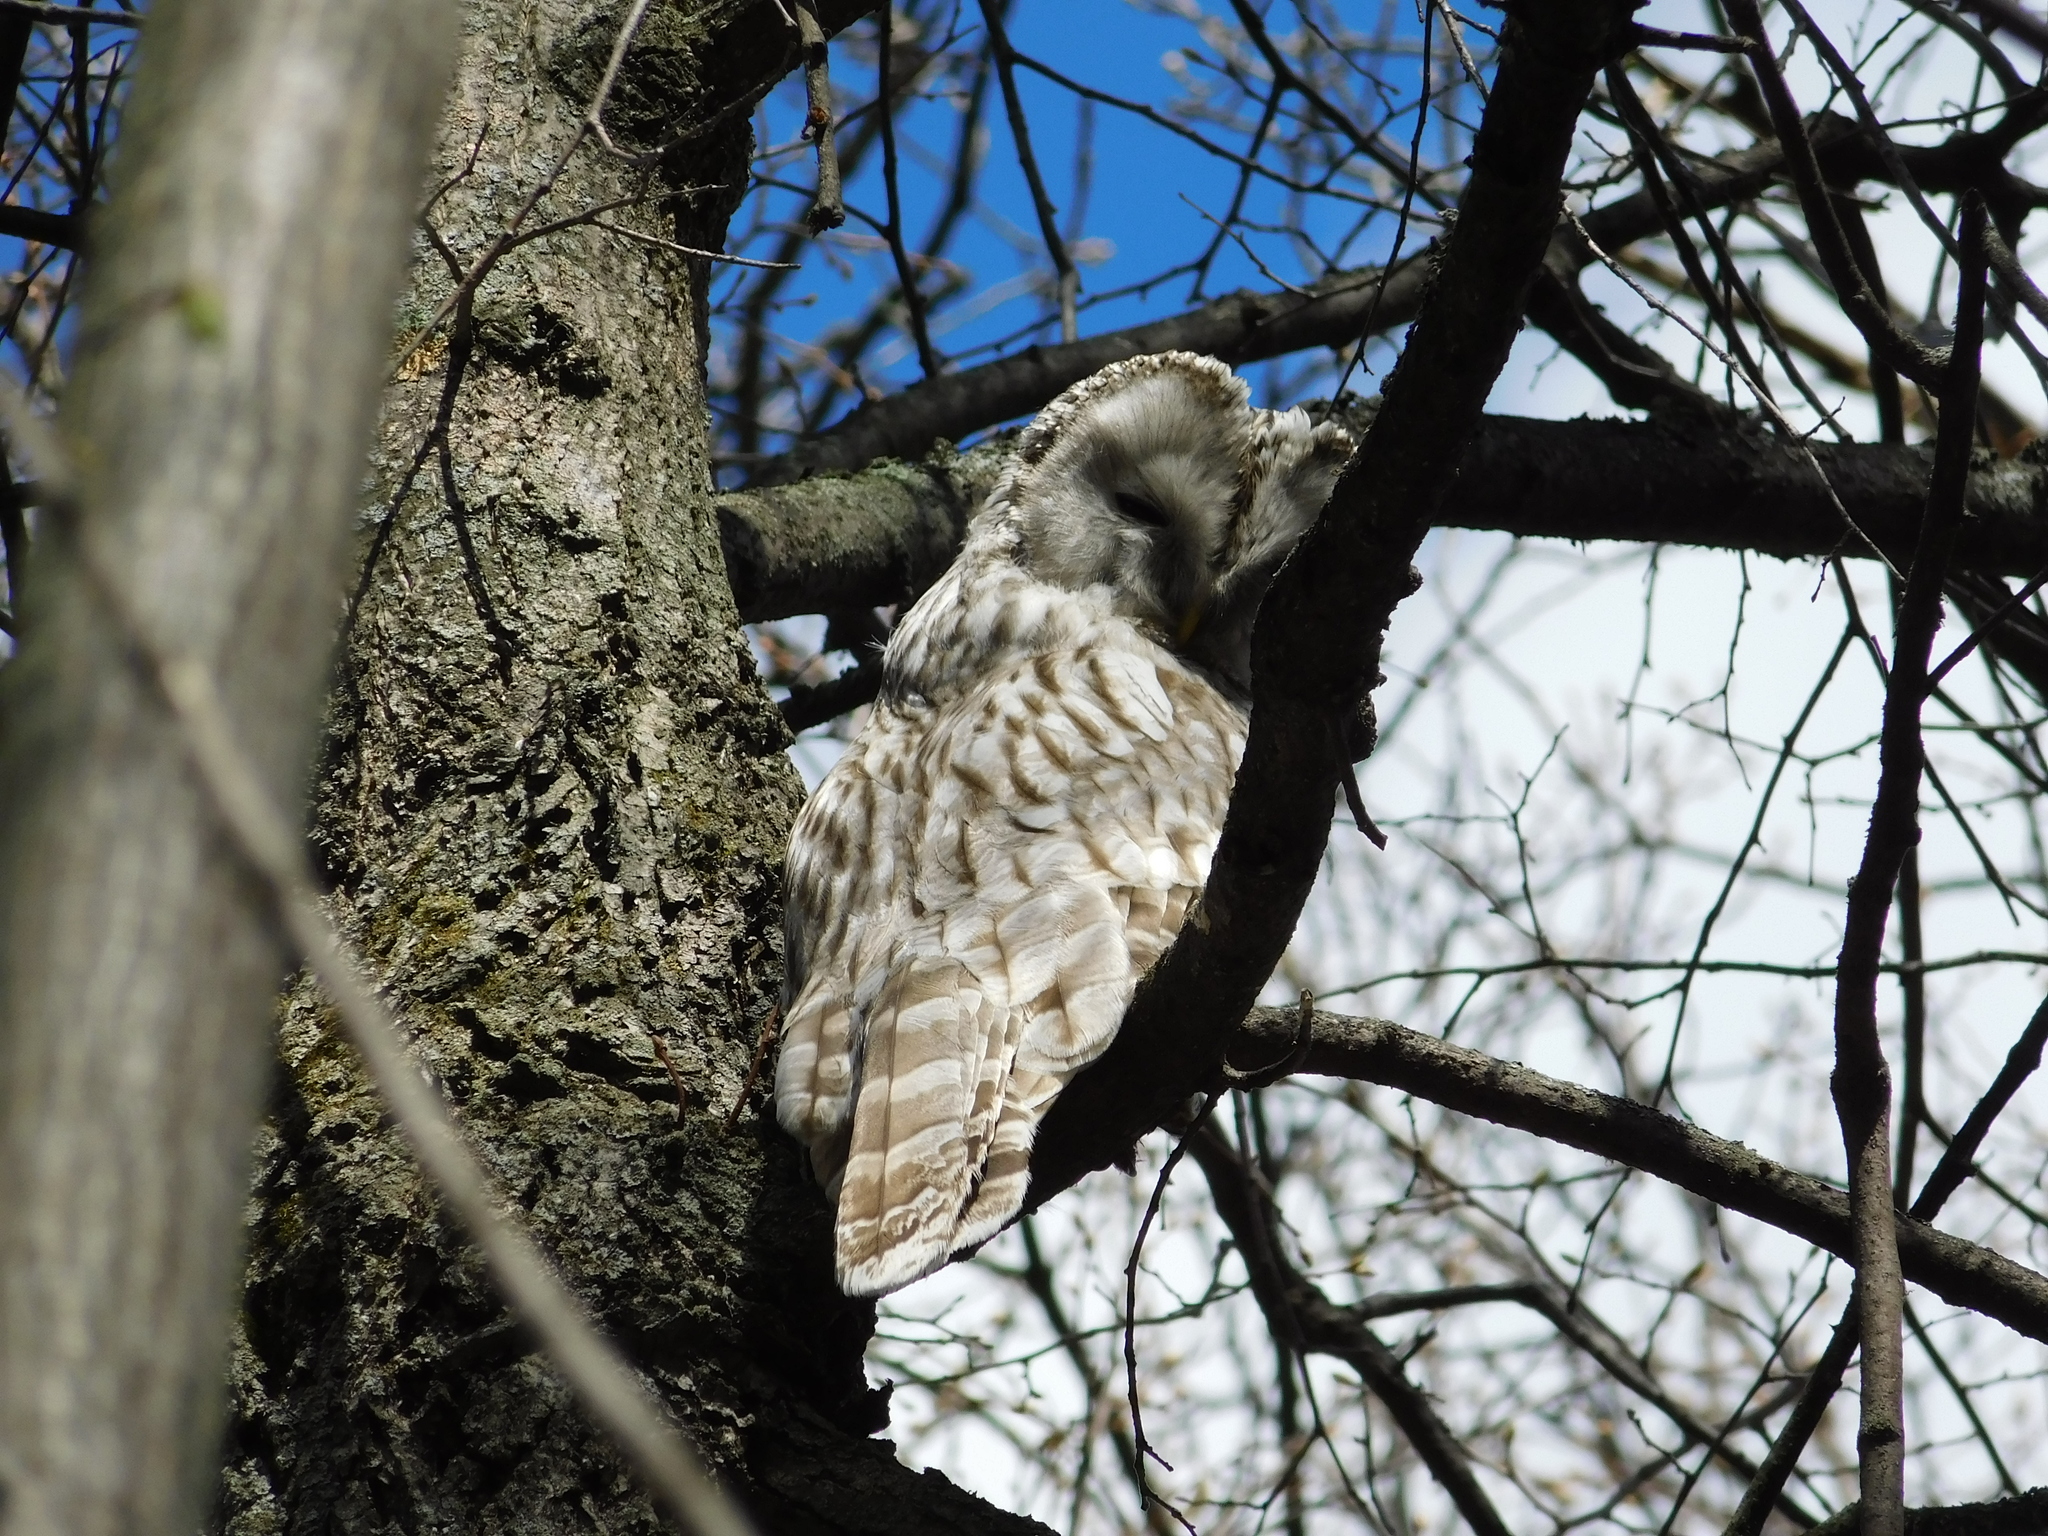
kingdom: Animalia
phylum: Chordata
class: Aves
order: Strigiformes
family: Strigidae
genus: Strix
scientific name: Strix uralensis
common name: Ural owl
